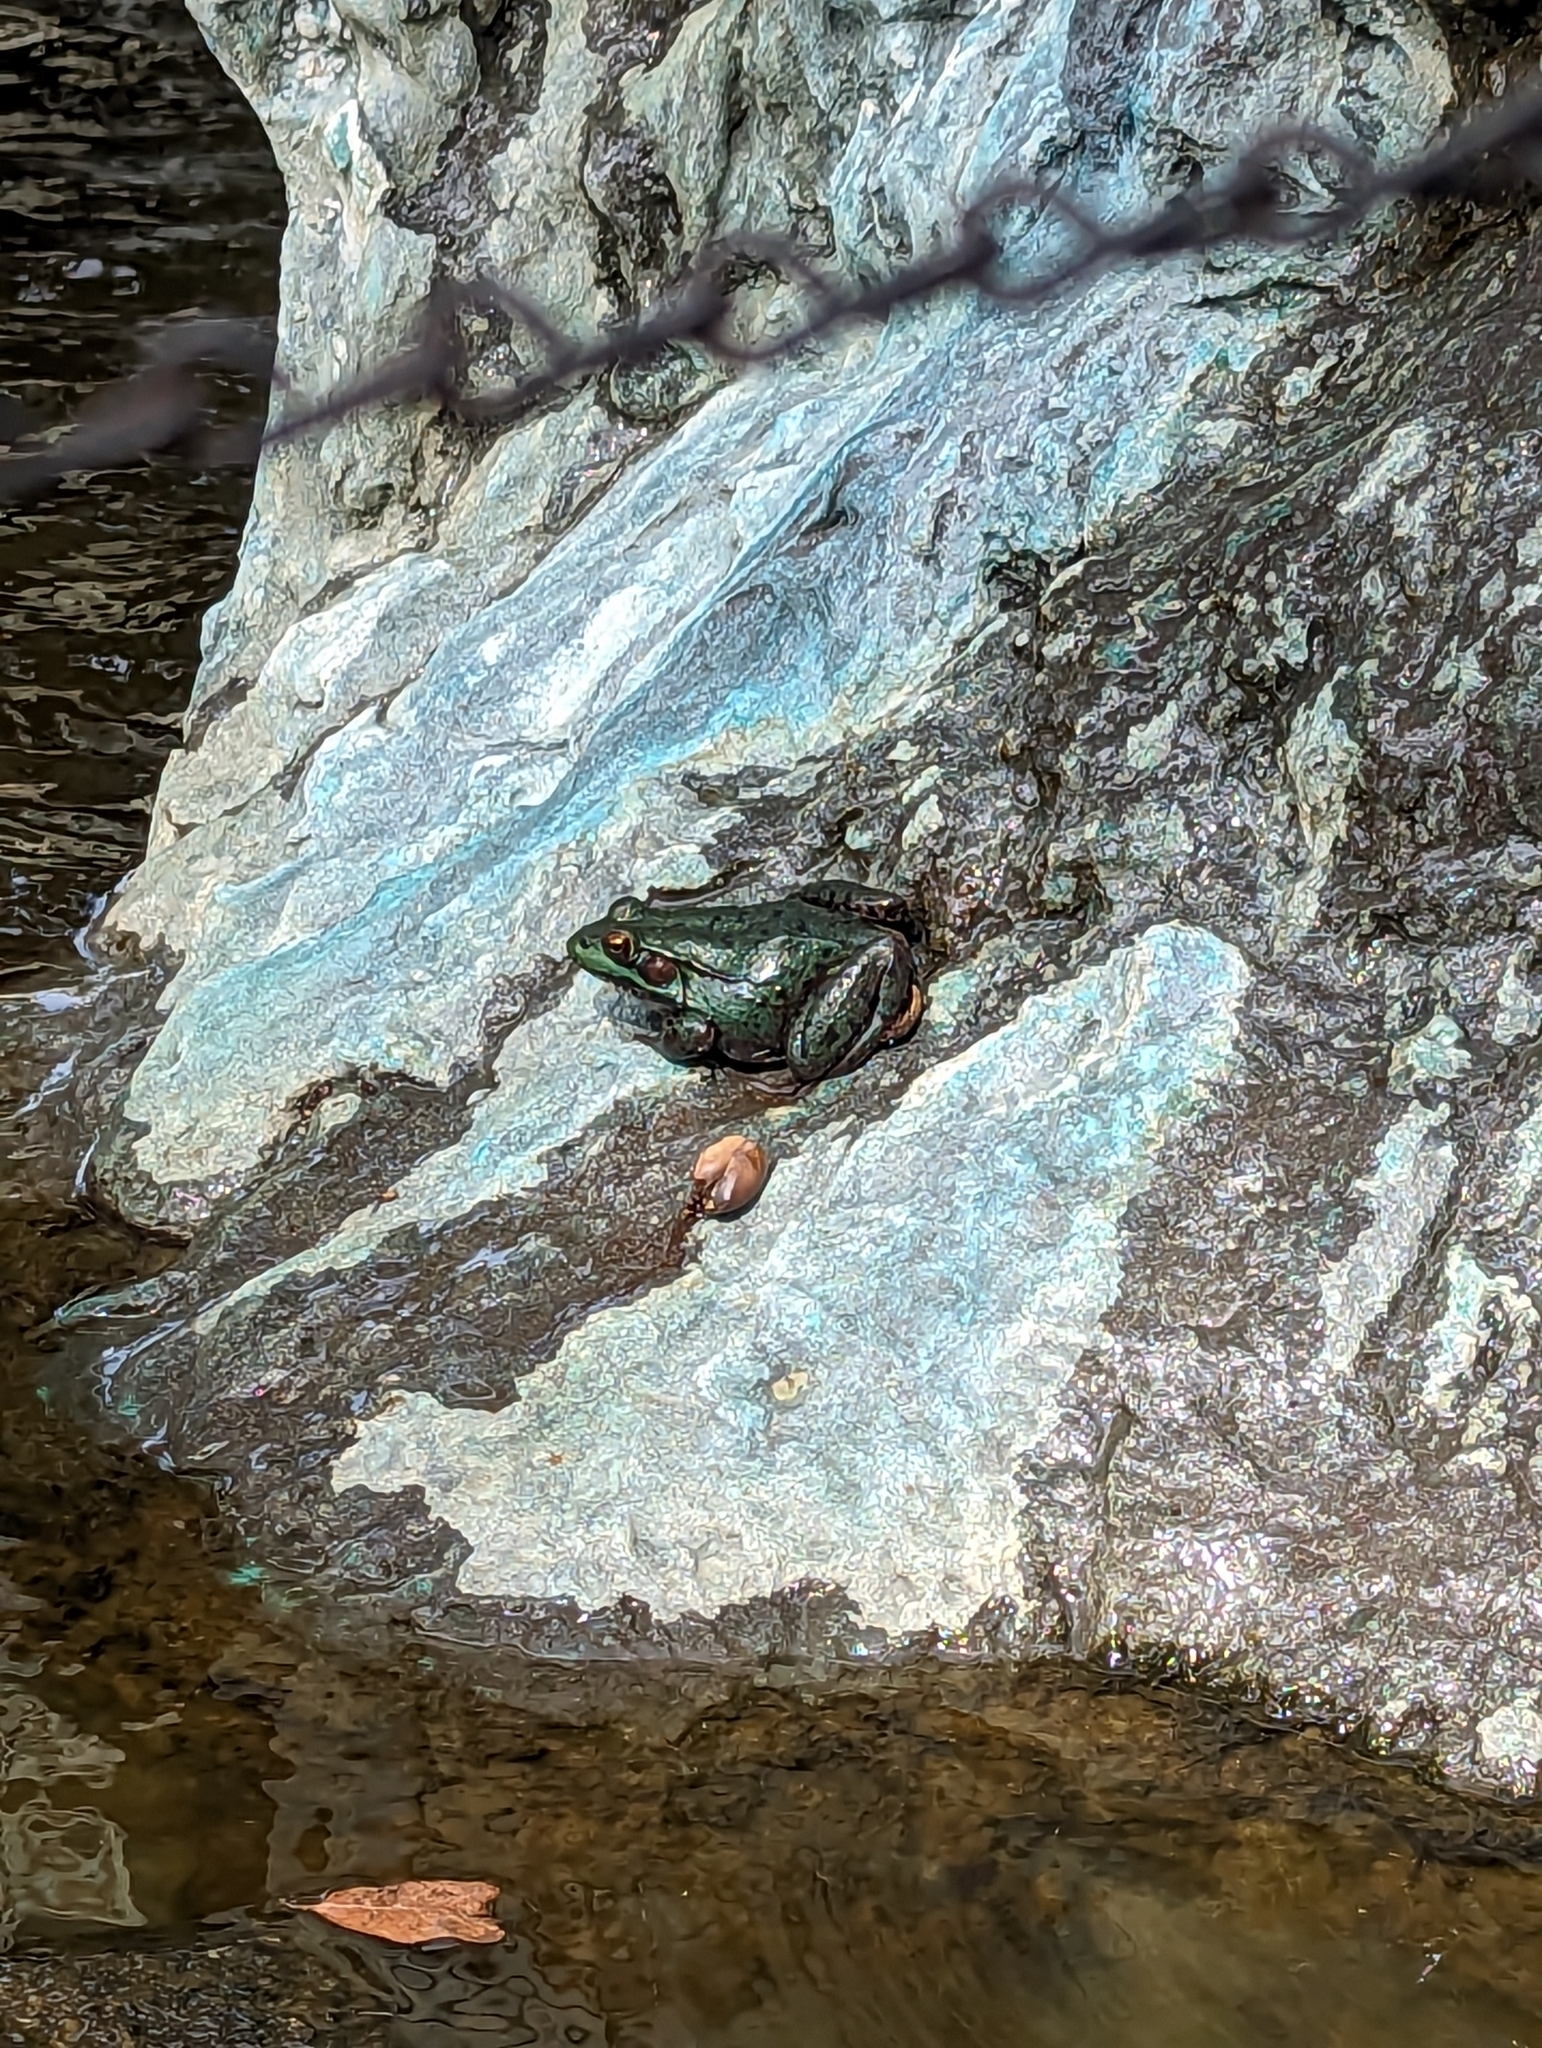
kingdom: Animalia
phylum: Chordata
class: Amphibia
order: Anura
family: Ranidae
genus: Lithobates
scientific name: Lithobates clamitans
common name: Green frog
